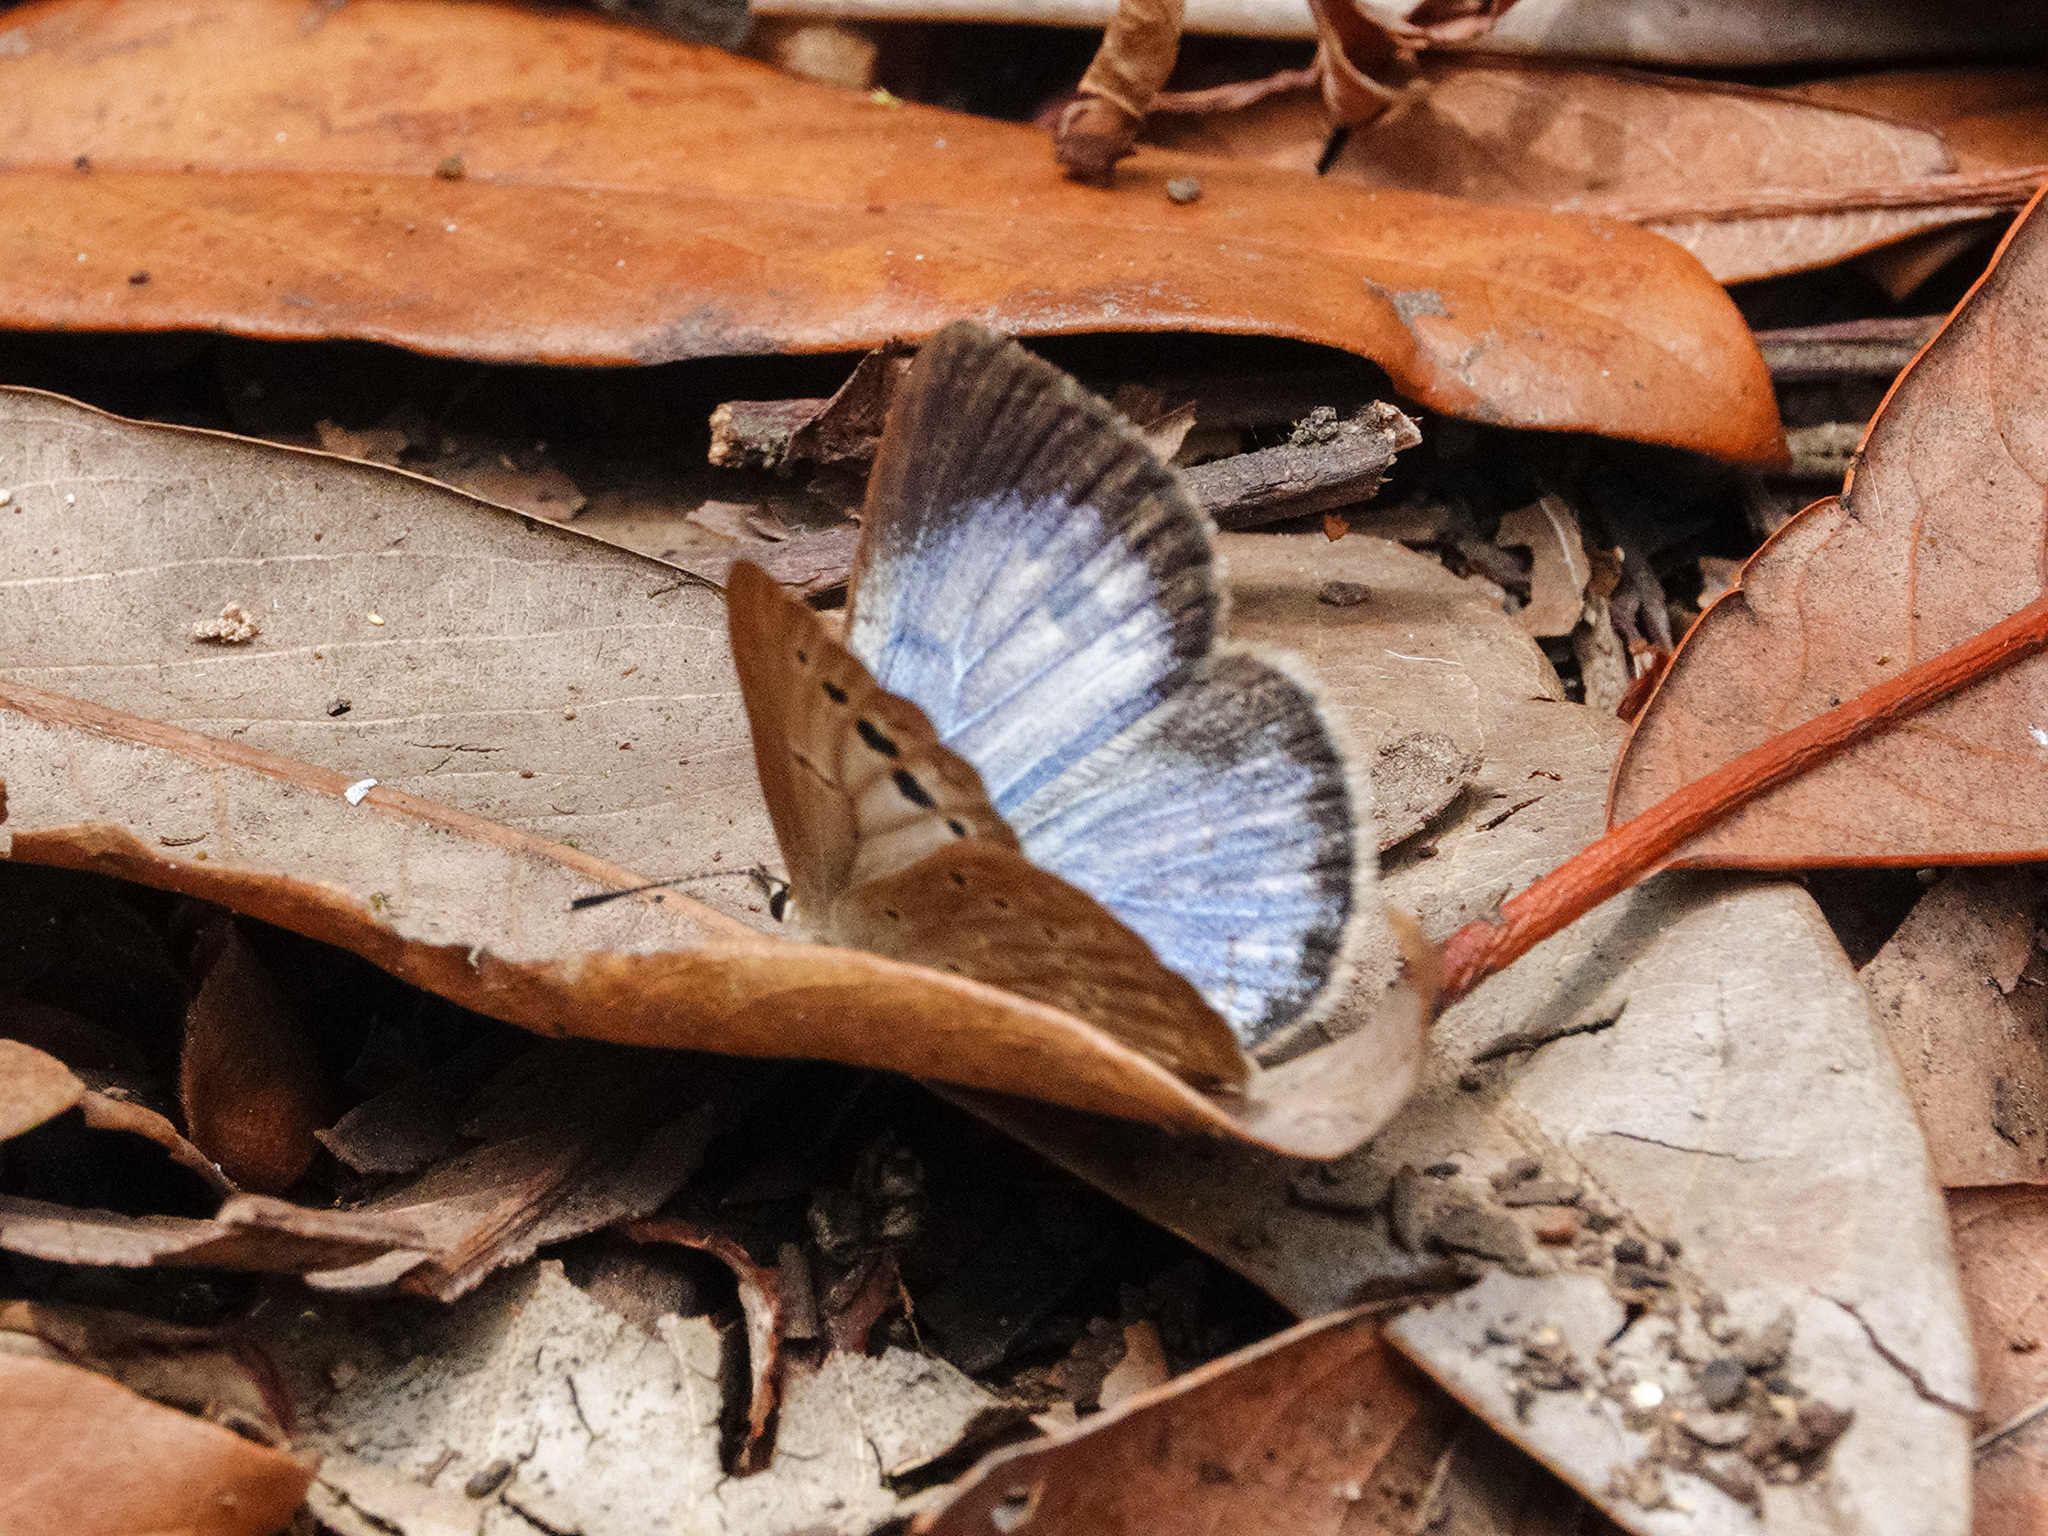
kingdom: Animalia
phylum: Arthropoda
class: Insecta
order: Lepidoptera
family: Lycaenidae
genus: Caerulea
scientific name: Caerulea coeligena
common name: Large-spot blue
